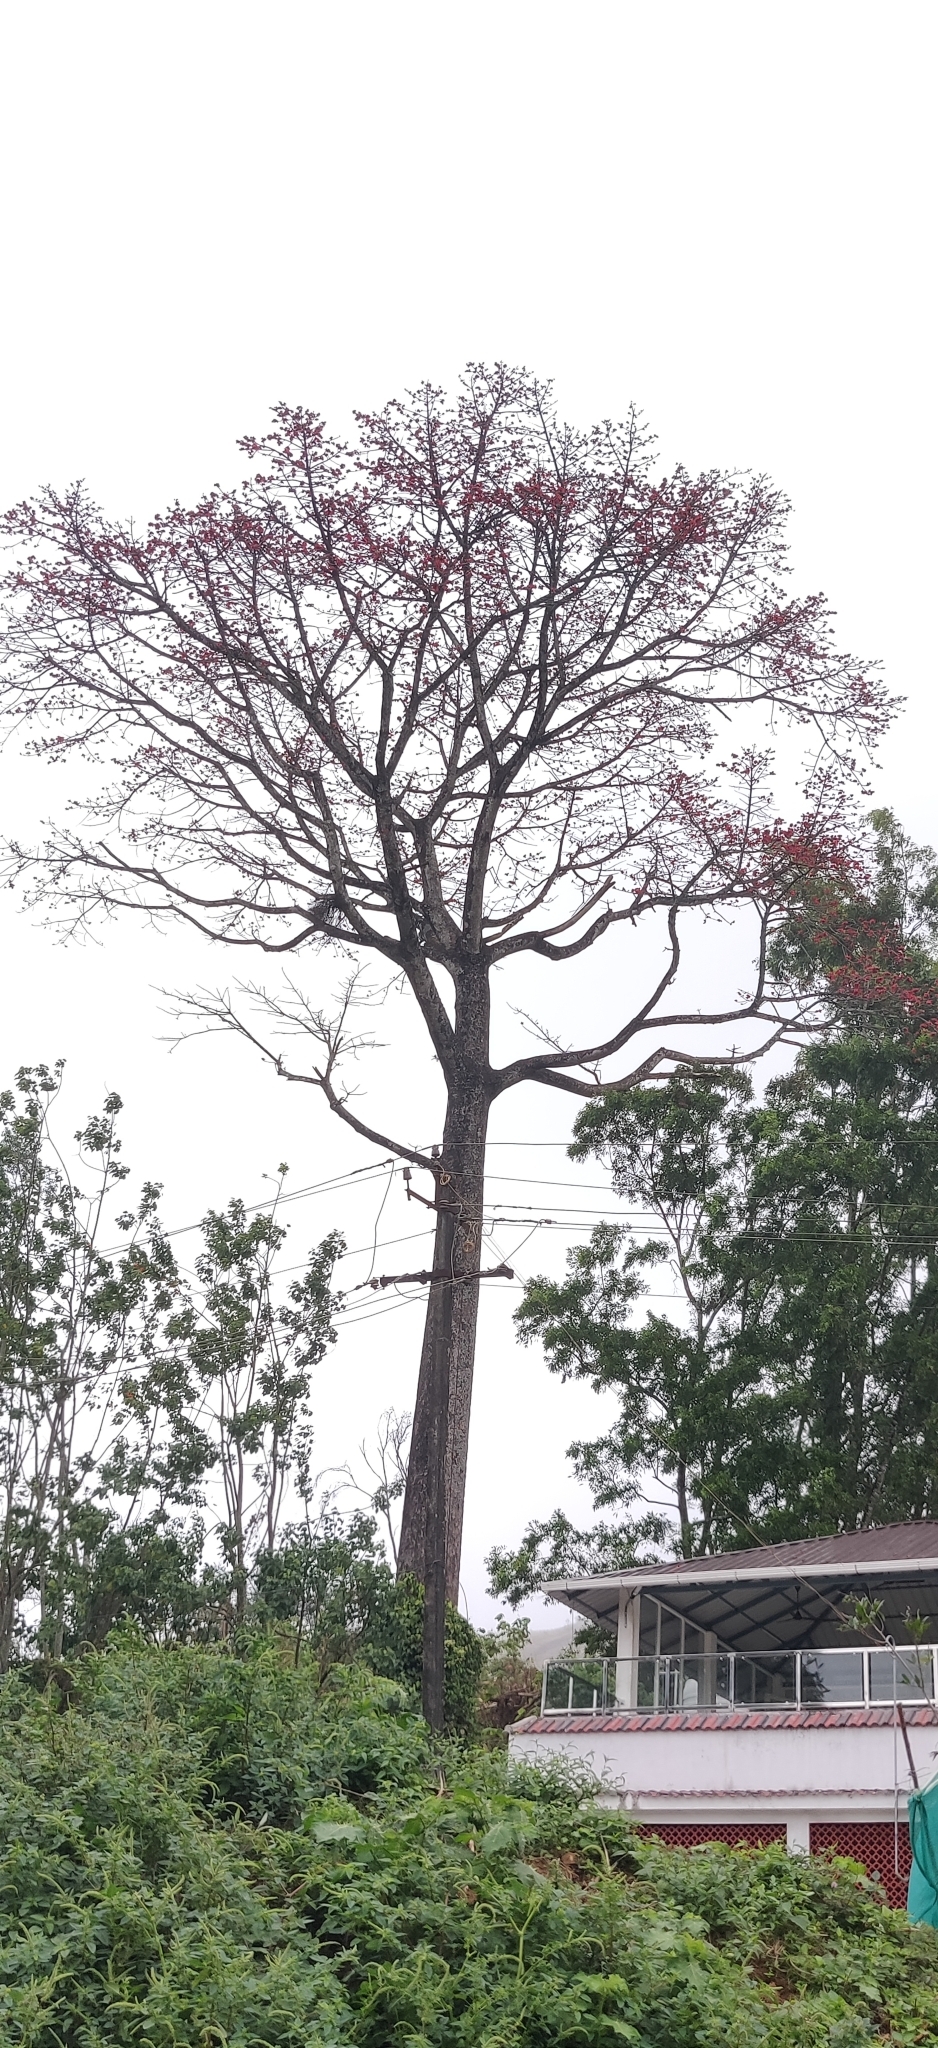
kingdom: Plantae
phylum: Tracheophyta
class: Magnoliopsida
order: Malvales
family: Malvaceae
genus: Bombax
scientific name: Bombax ceiba
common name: Northern-cottonwood
